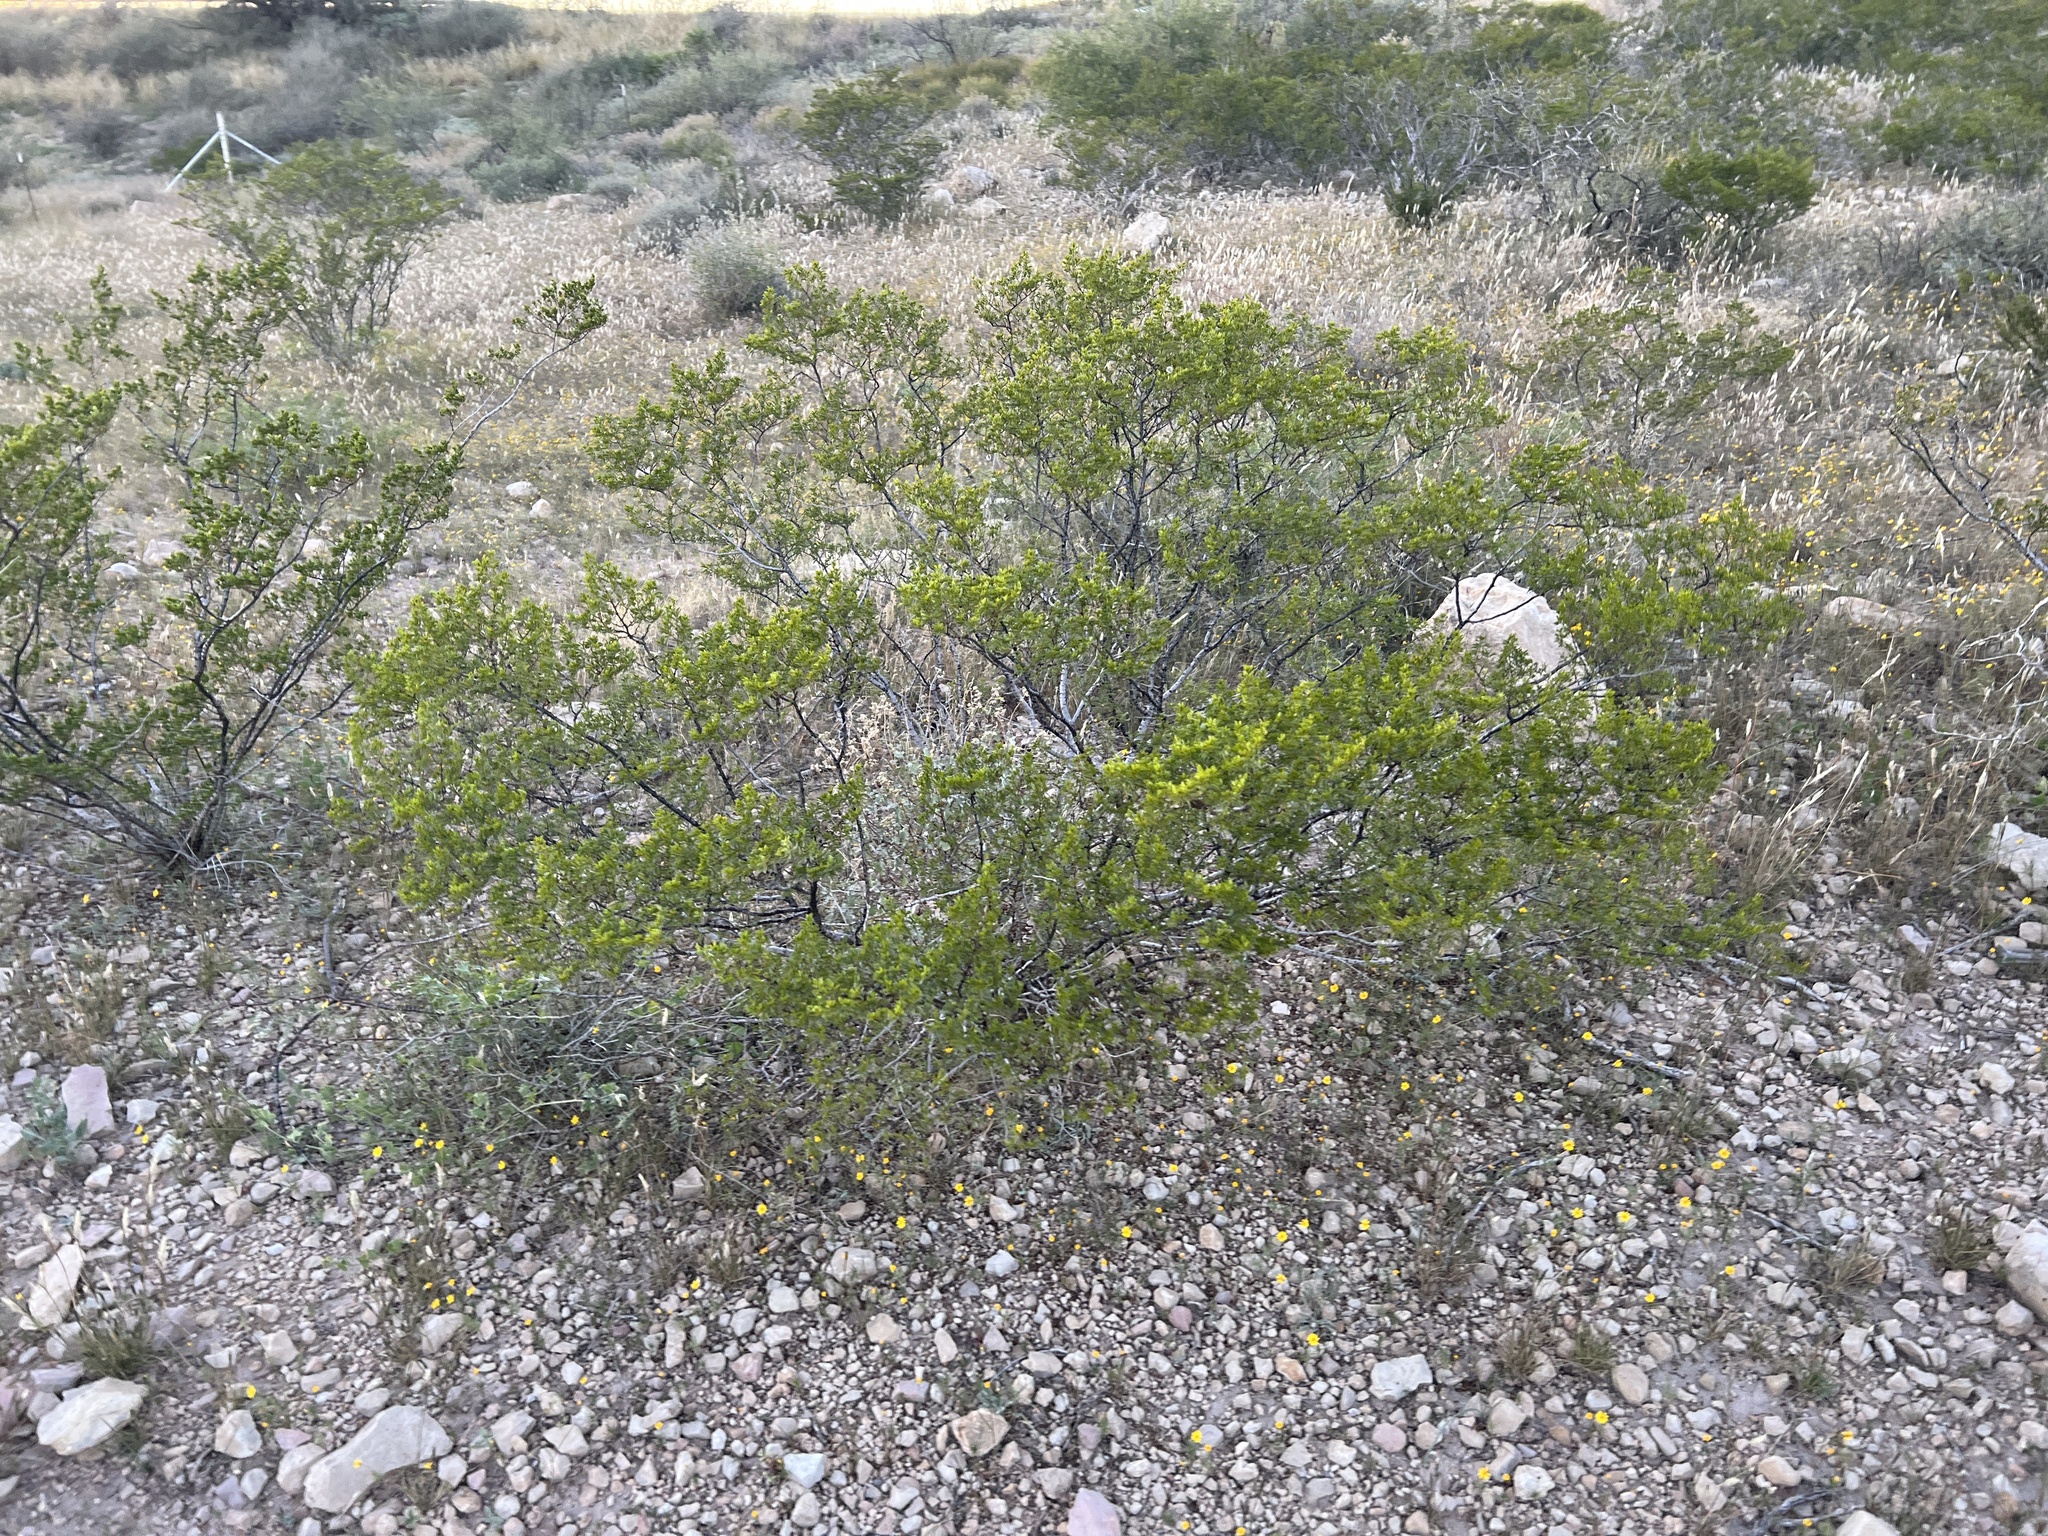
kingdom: Plantae
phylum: Tracheophyta
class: Magnoliopsida
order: Zygophyllales
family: Zygophyllaceae
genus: Larrea
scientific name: Larrea tridentata
